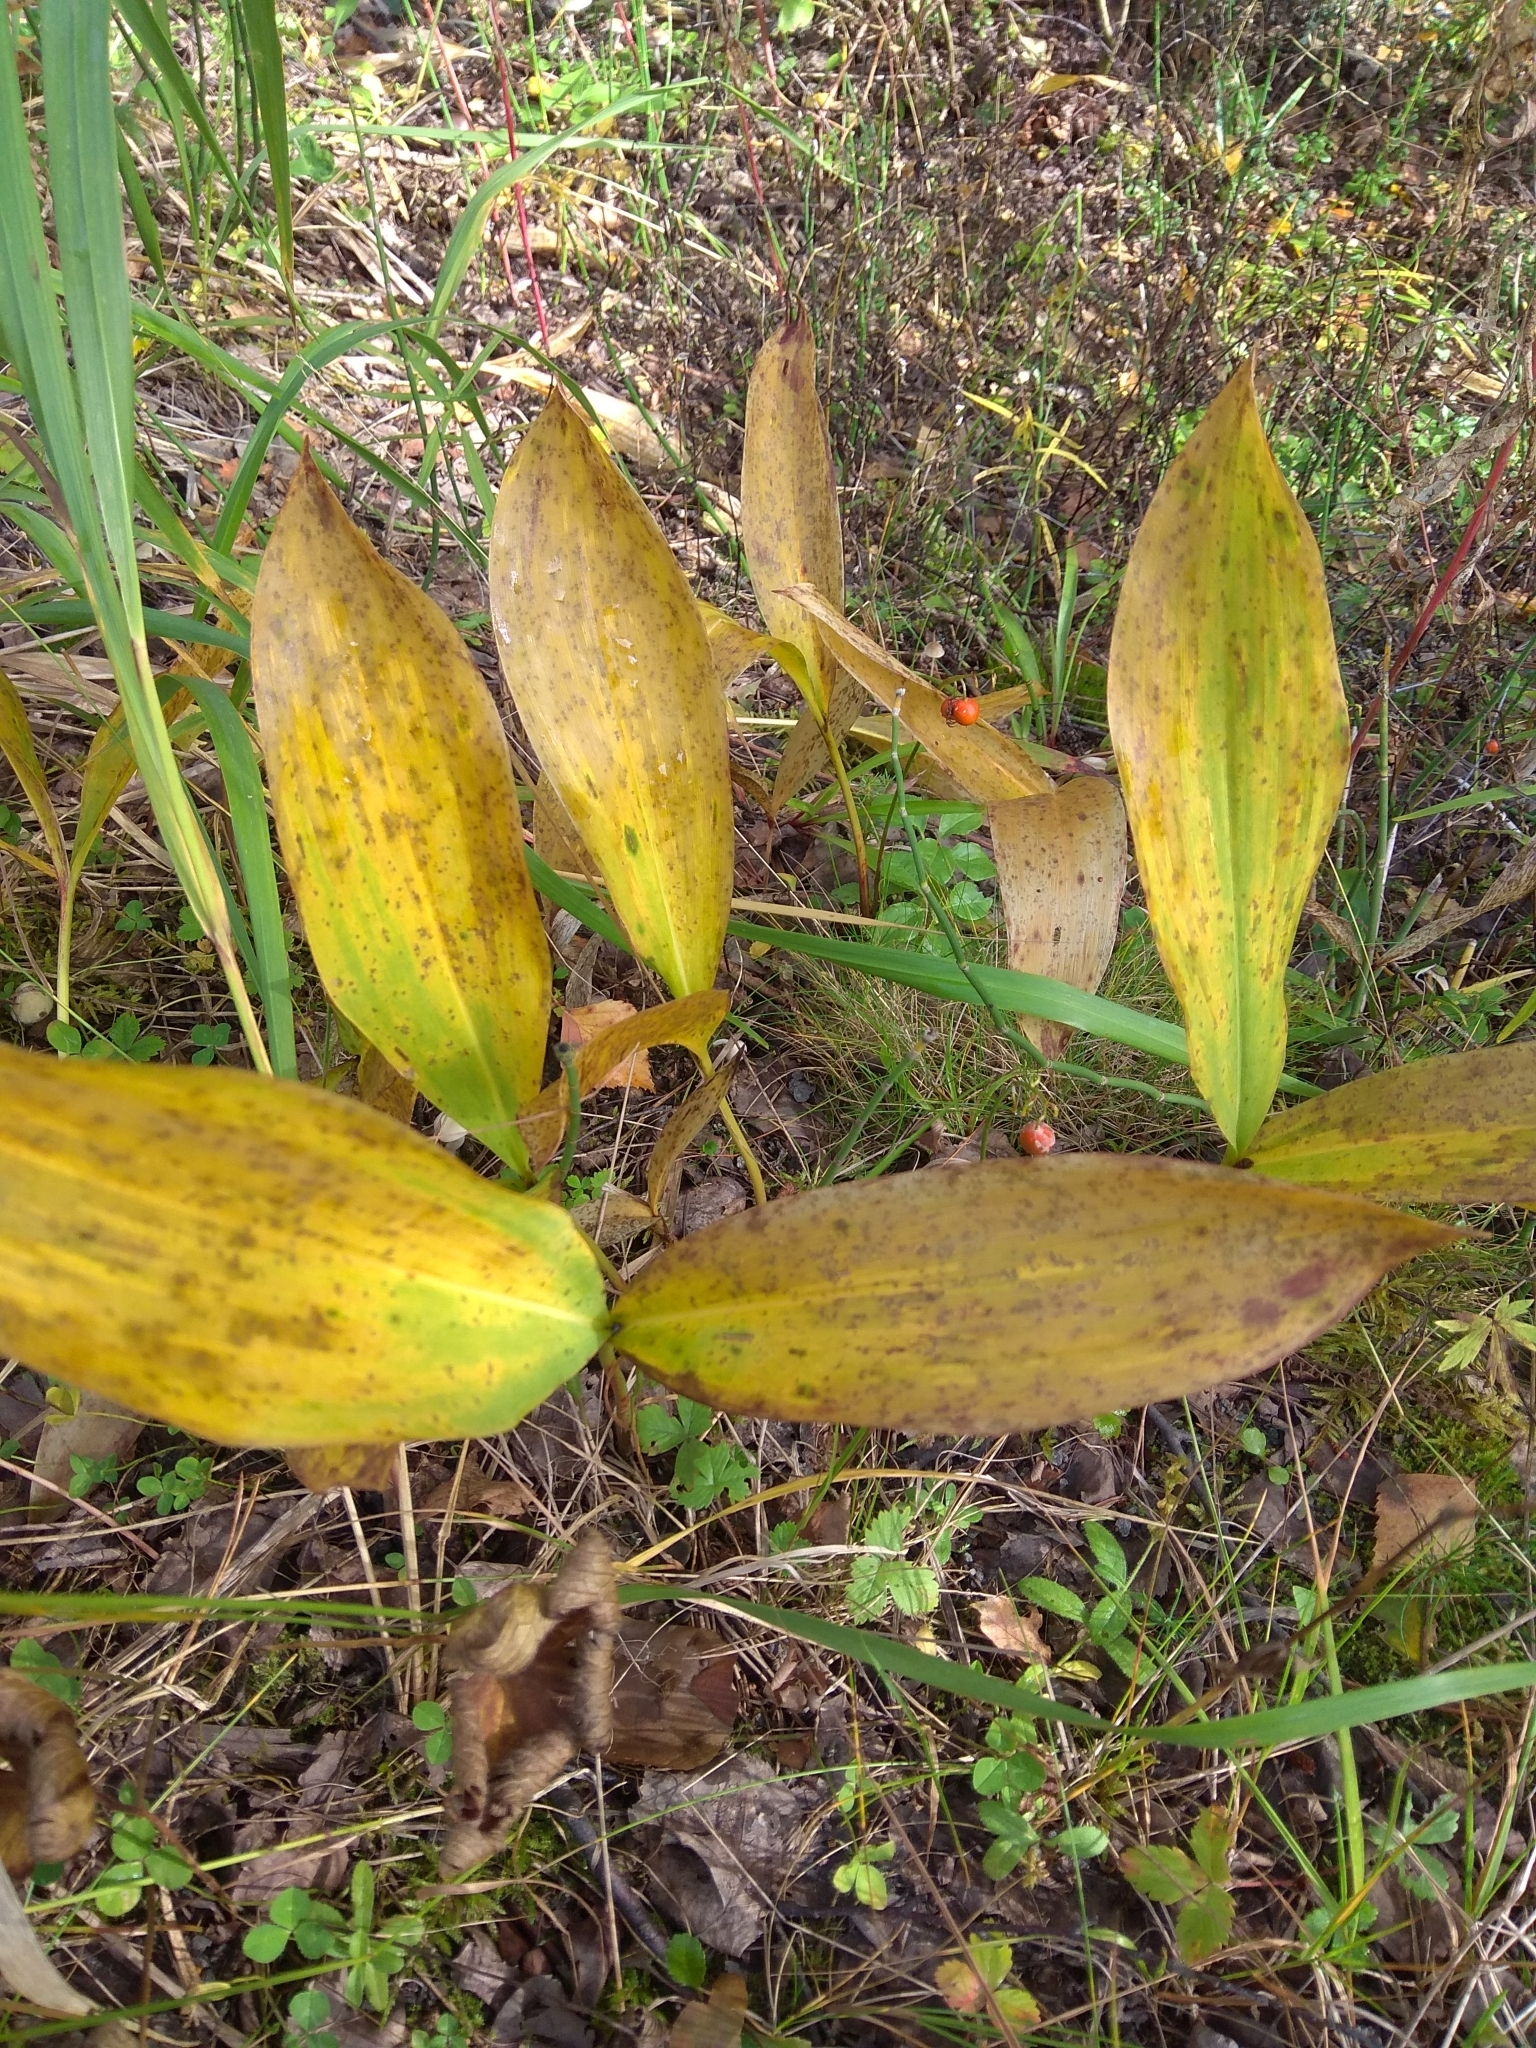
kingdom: Plantae
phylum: Tracheophyta
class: Liliopsida
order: Asparagales
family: Asparagaceae
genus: Convallaria
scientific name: Convallaria majalis
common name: Lily-of-the-valley
